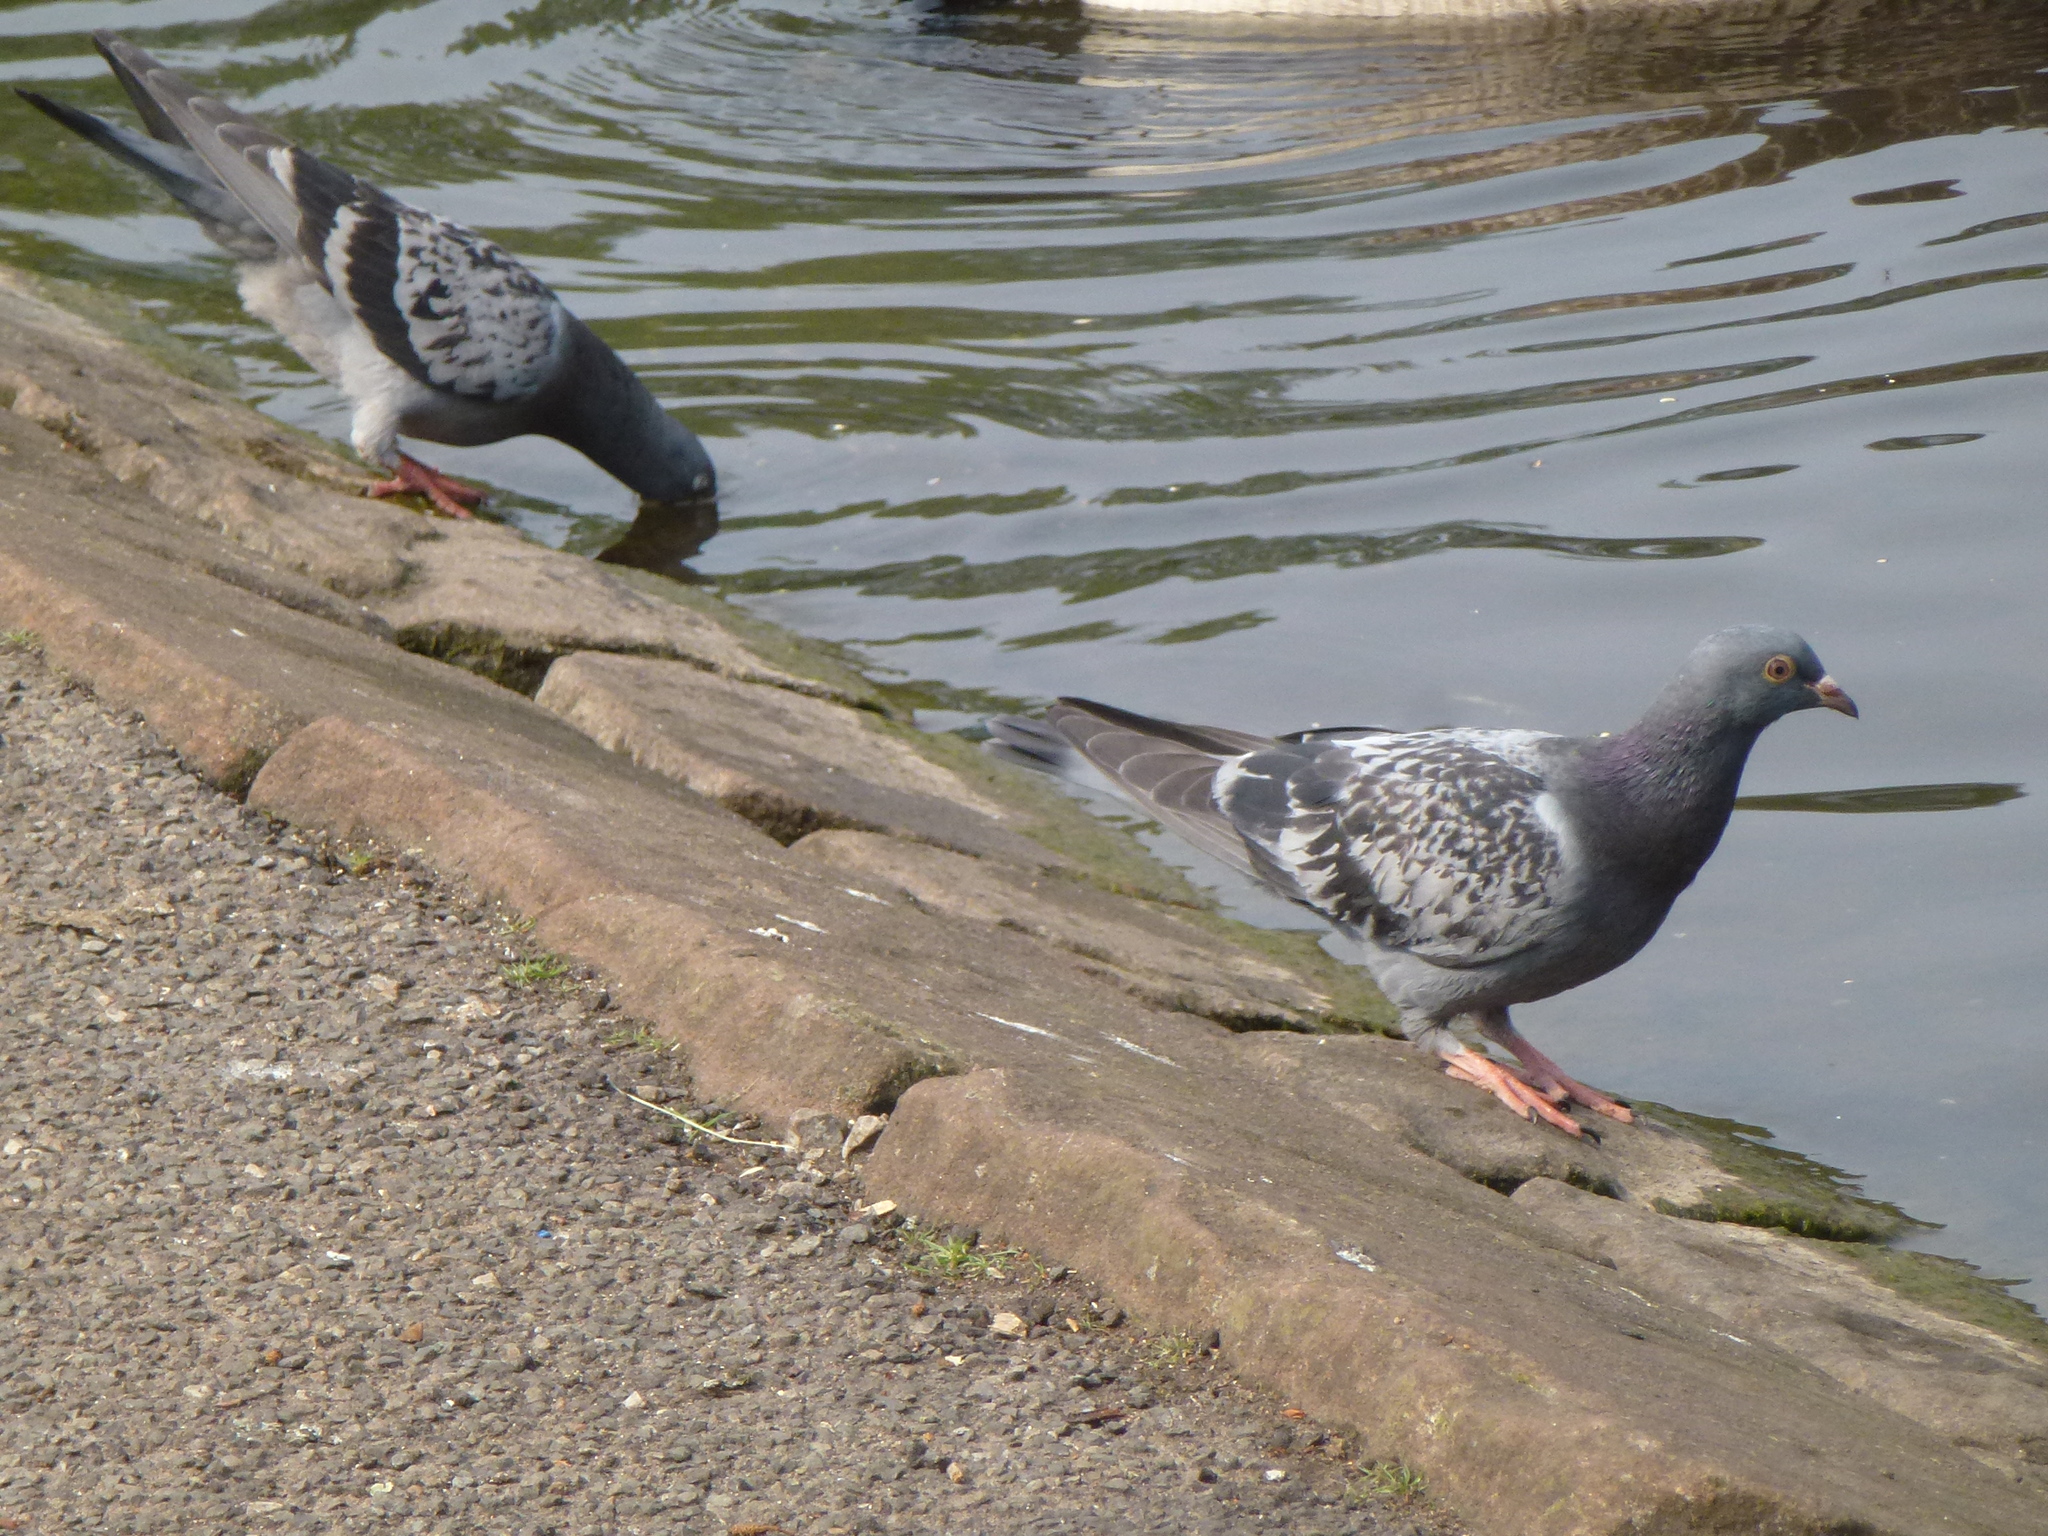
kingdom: Animalia
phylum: Chordata
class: Aves
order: Columbiformes
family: Columbidae
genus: Columba
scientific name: Columba livia
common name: Rock pigeon
